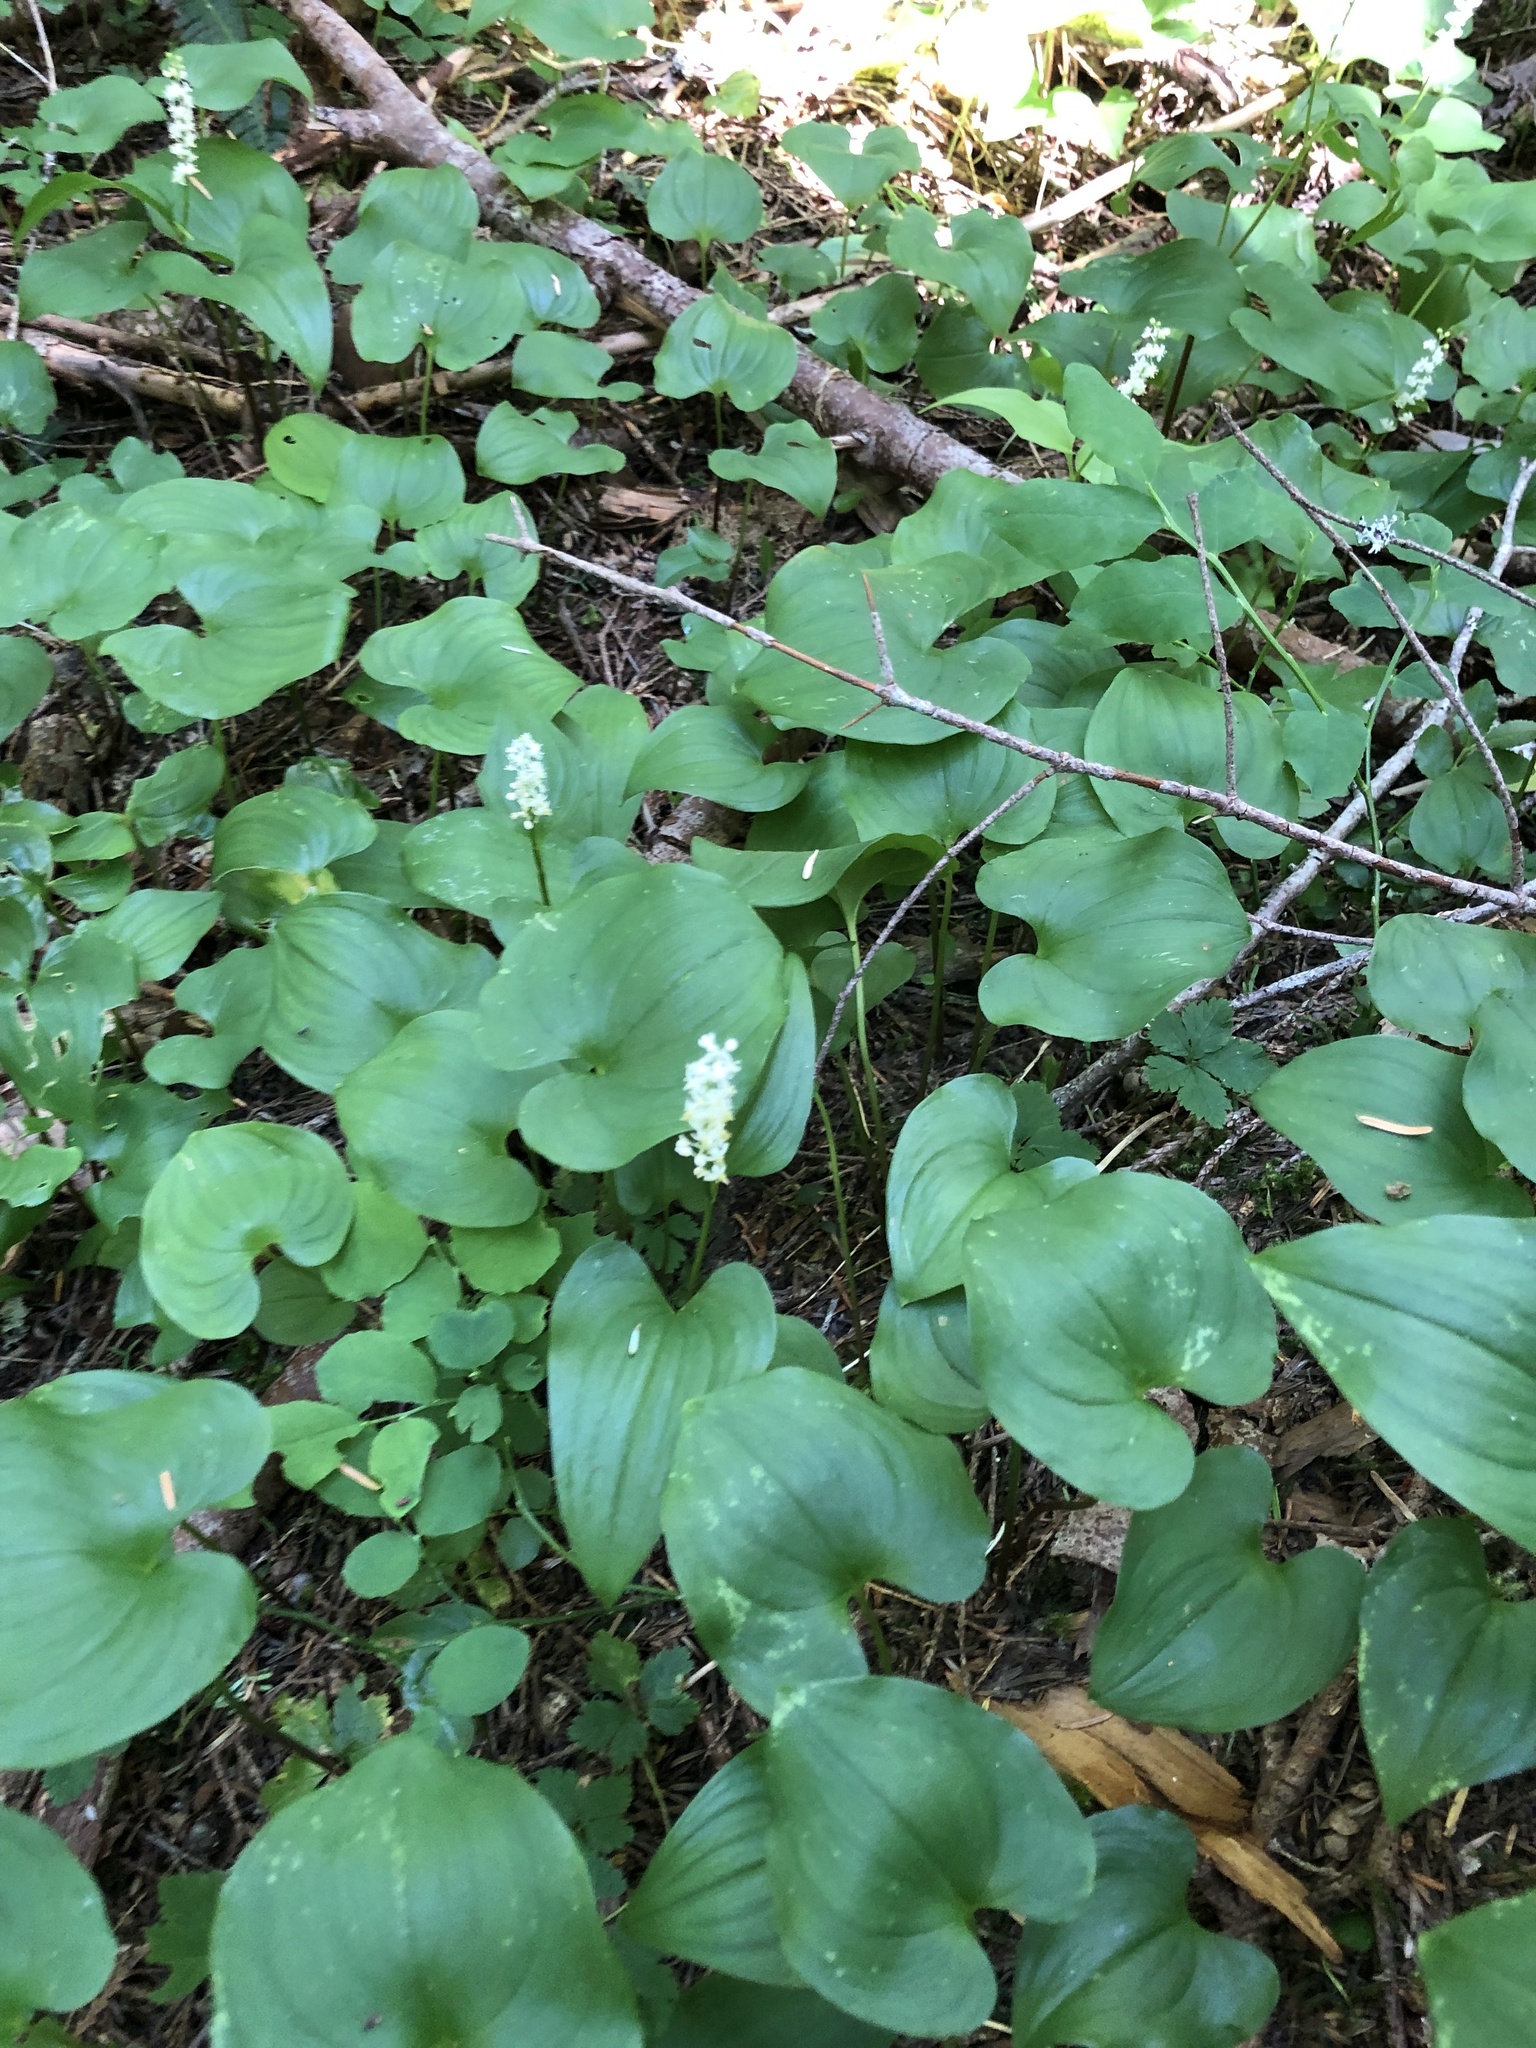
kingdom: Plantae
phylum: Tracheophyta
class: Liliopsida
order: Asparagales
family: Asparagaceae
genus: Maianthemum
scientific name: Maianthemum dilatatum
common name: False lily-of-the-valley
